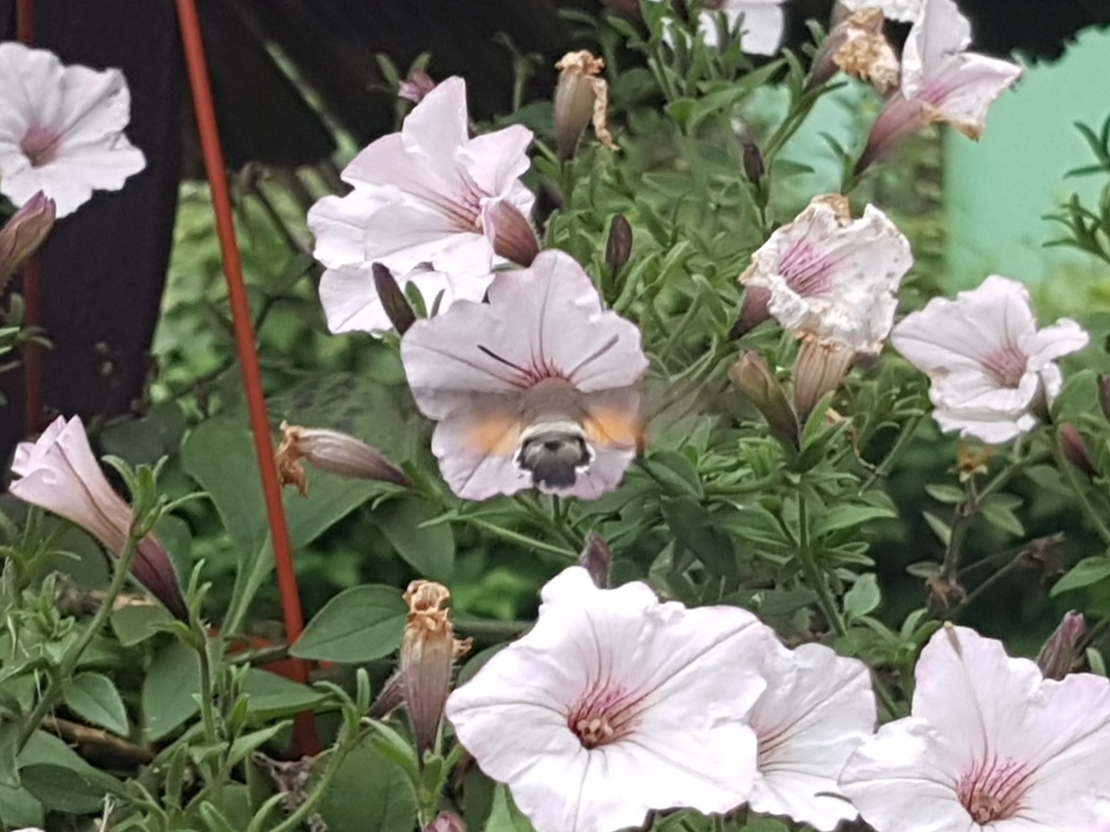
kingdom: Animalia
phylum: Arthropoda
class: Insecta
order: Lepidoptera
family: Sphingidae
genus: Macroglossum
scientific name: Macroglossum stellatarum
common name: Humming-bird hawk-moth
